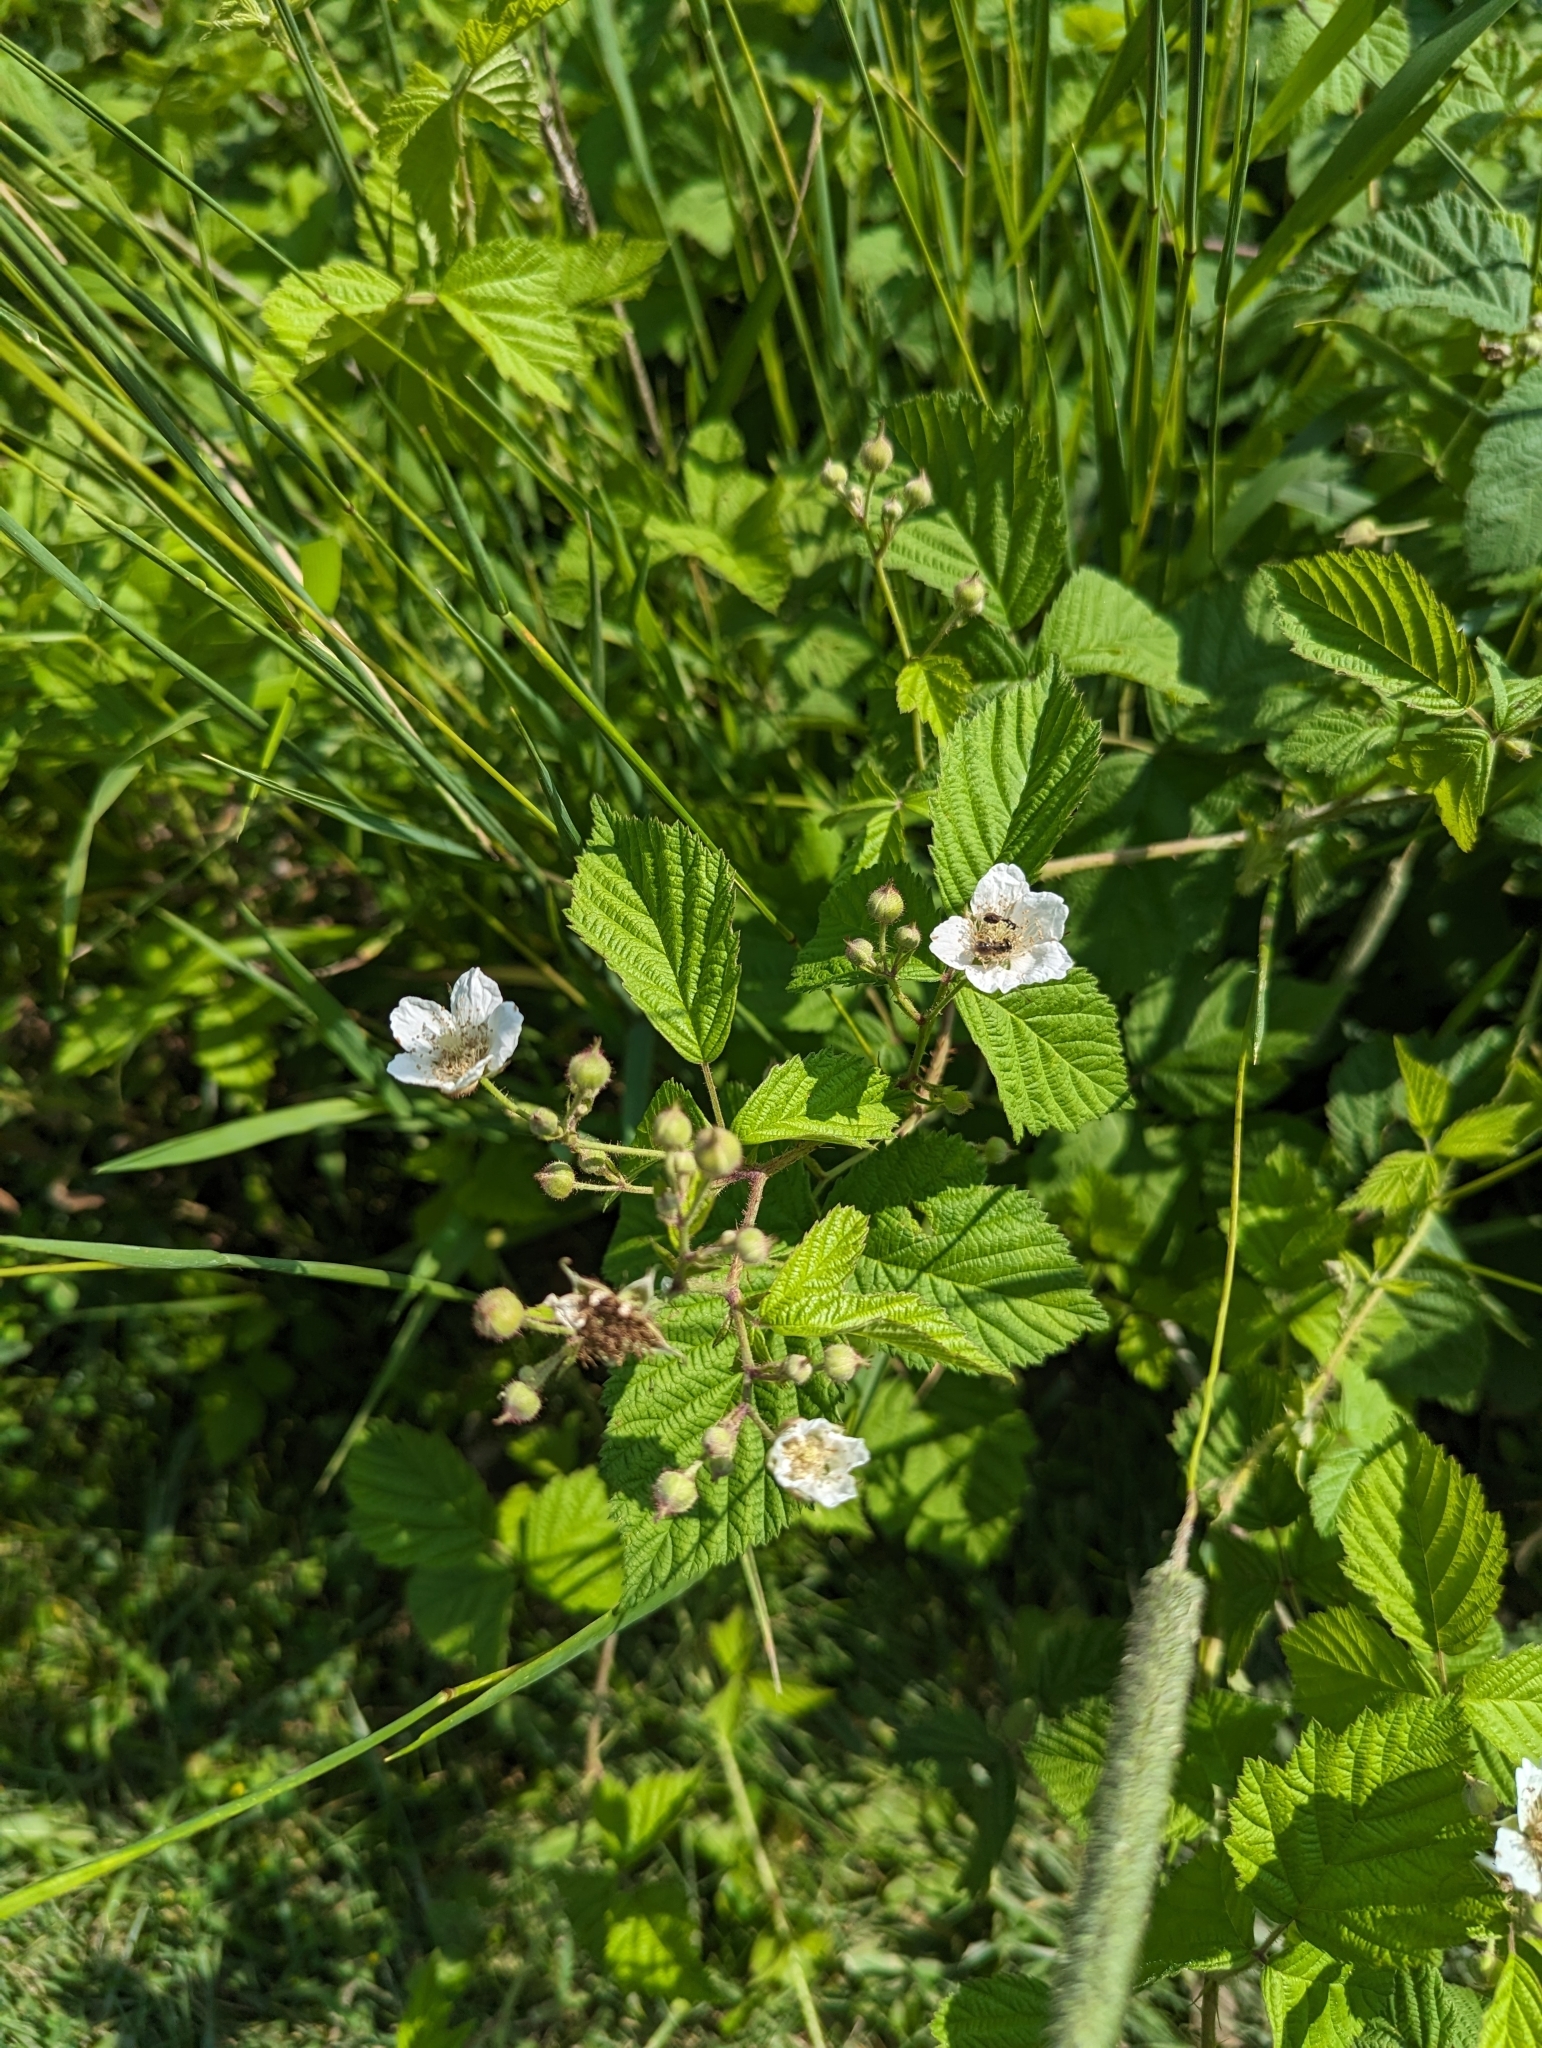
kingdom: Plantae
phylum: Tracheophyta
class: Magnoliopsida
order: Rosales
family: Rosaceae
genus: Rubus
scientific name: Rubus caesius
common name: Dewberry
